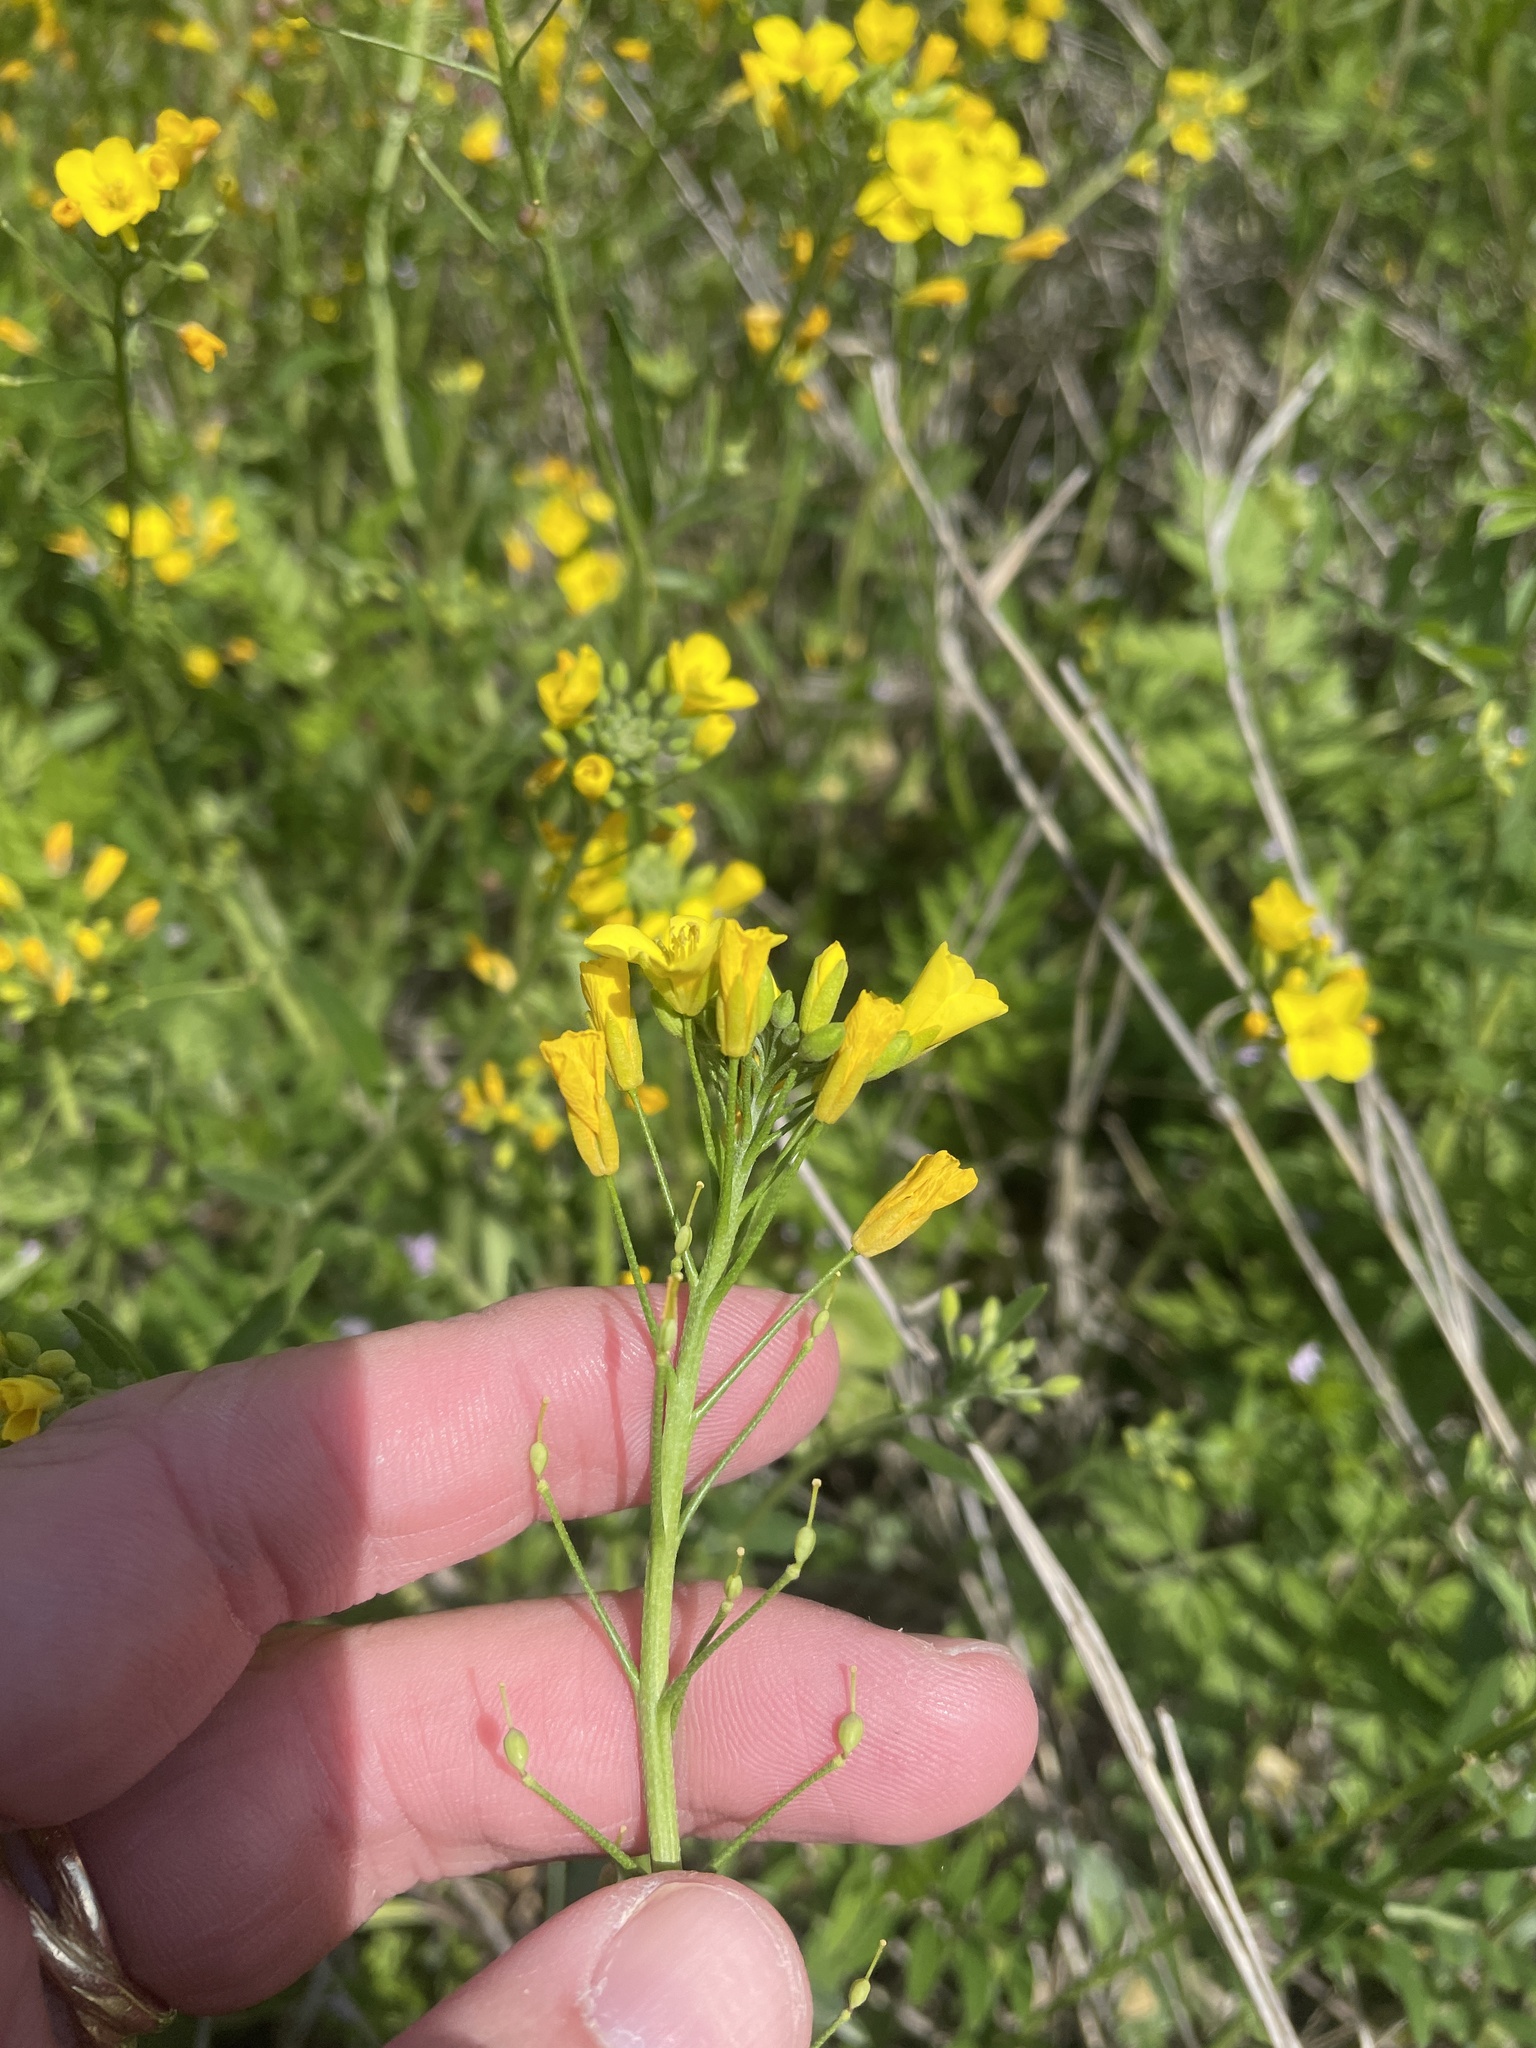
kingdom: Plantae
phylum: Tracheophyta
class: Magnoliopsida
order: Brassicales
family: Brassicaceae
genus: Physaria
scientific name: Physaria gracilis
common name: Spreading bladderpod
